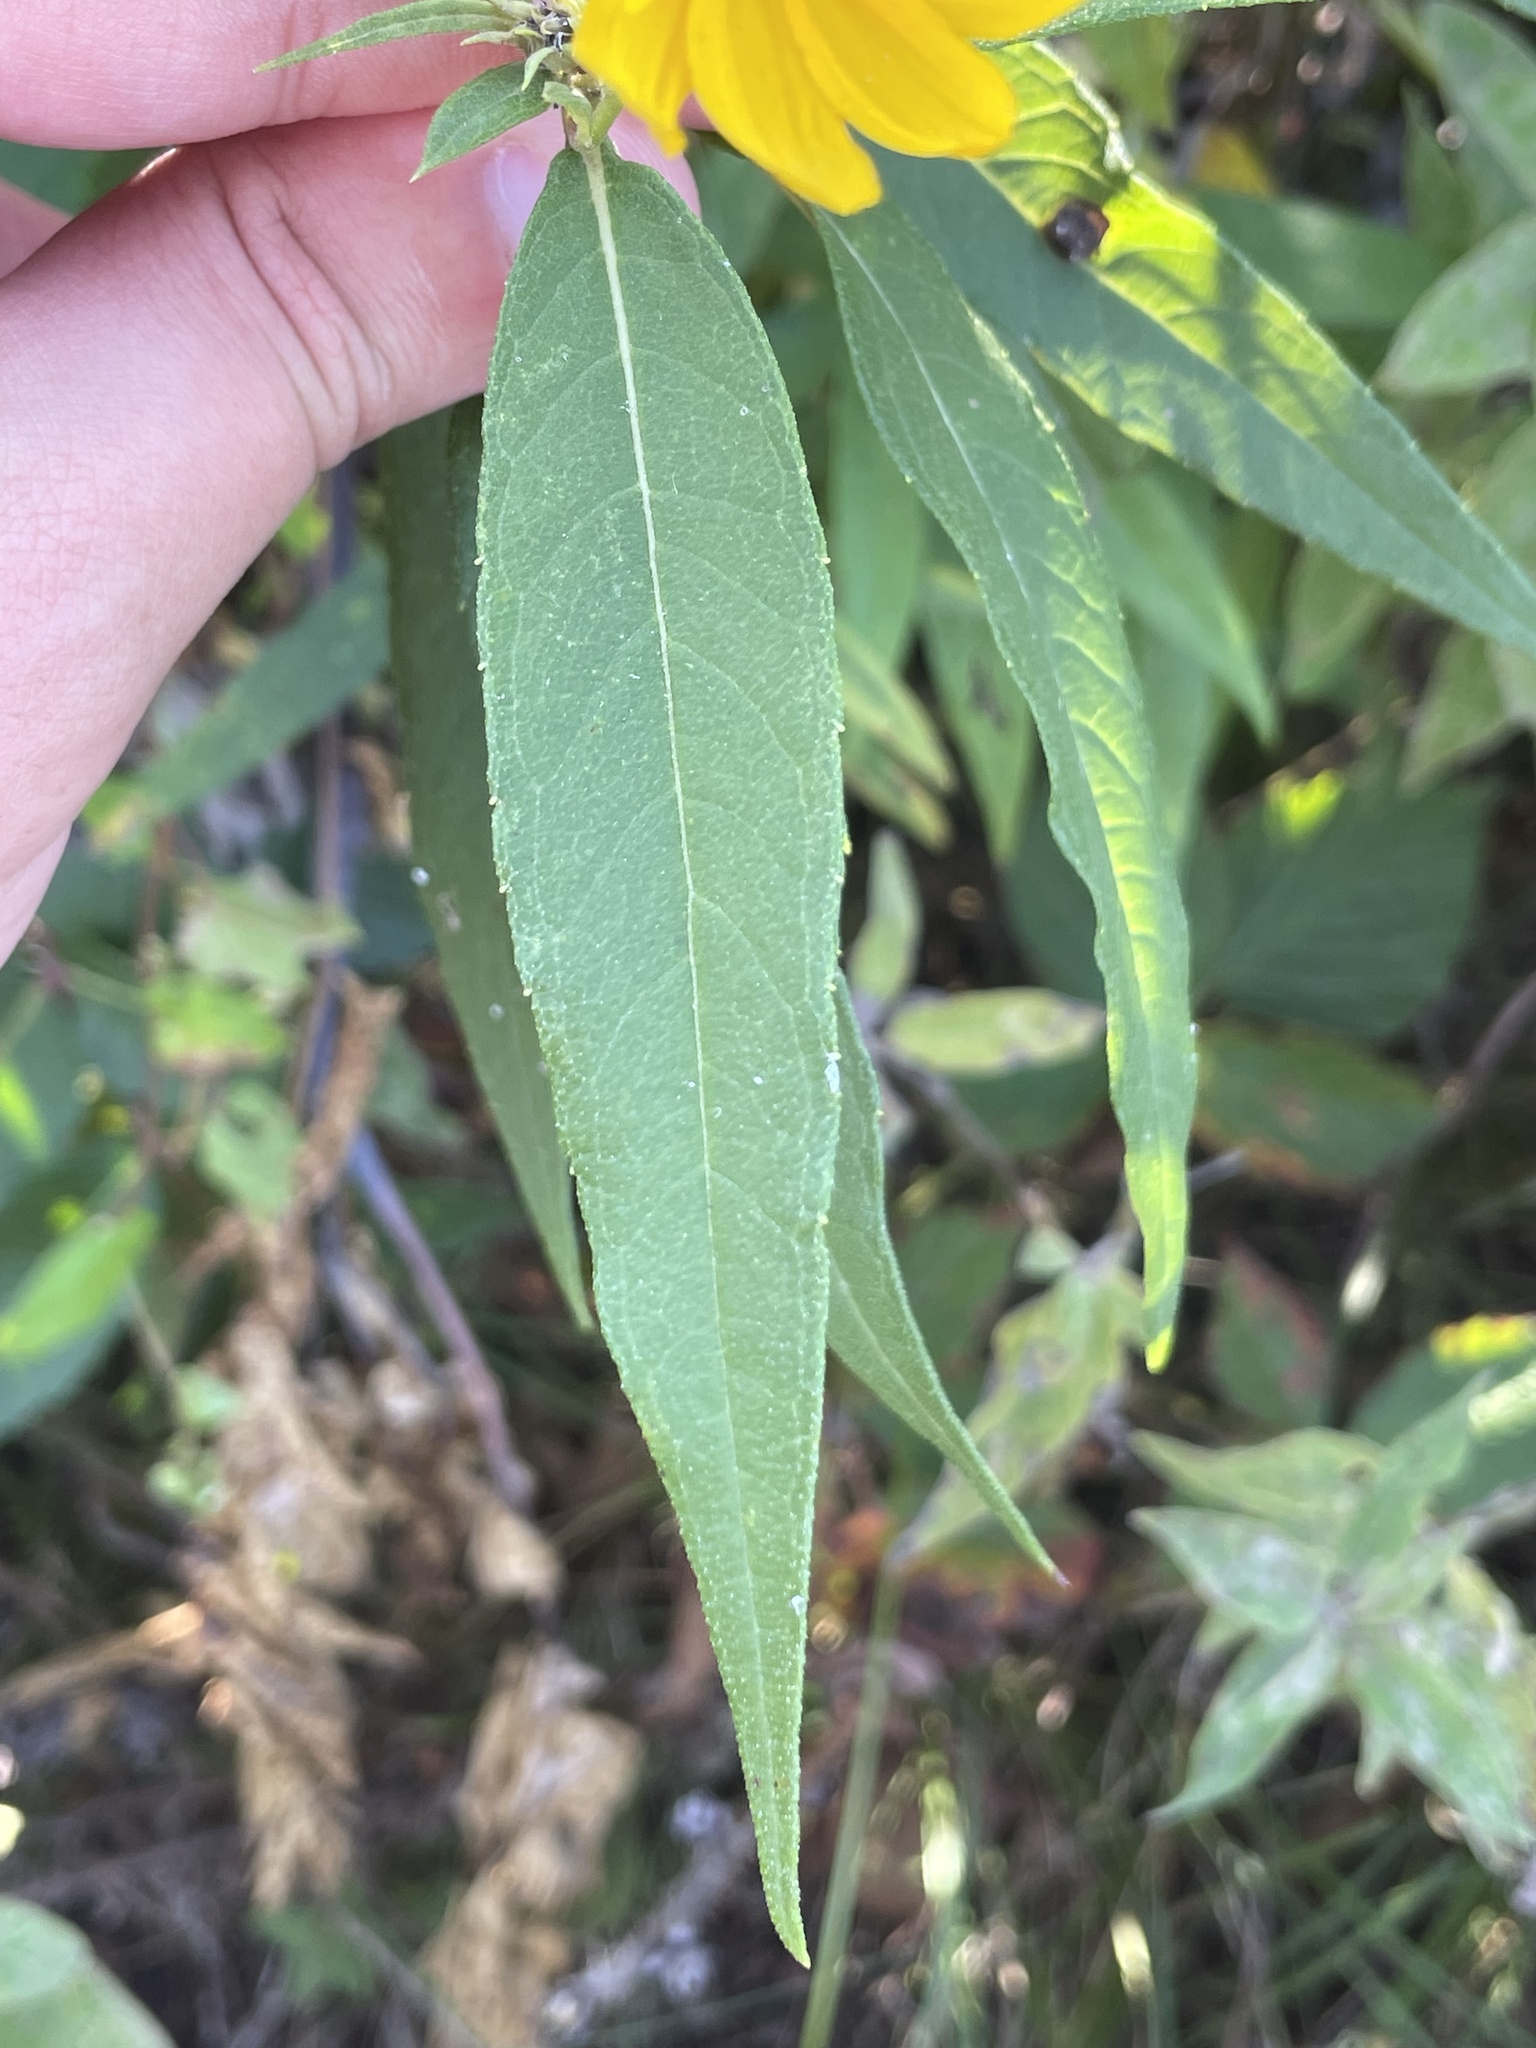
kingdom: Plantae
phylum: Tracheophyta
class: Magnoliopsida
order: Asterales
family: Asteraceae
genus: Helianthus
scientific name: Helianthus grosseserratus
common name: Sawtooth sunflower
